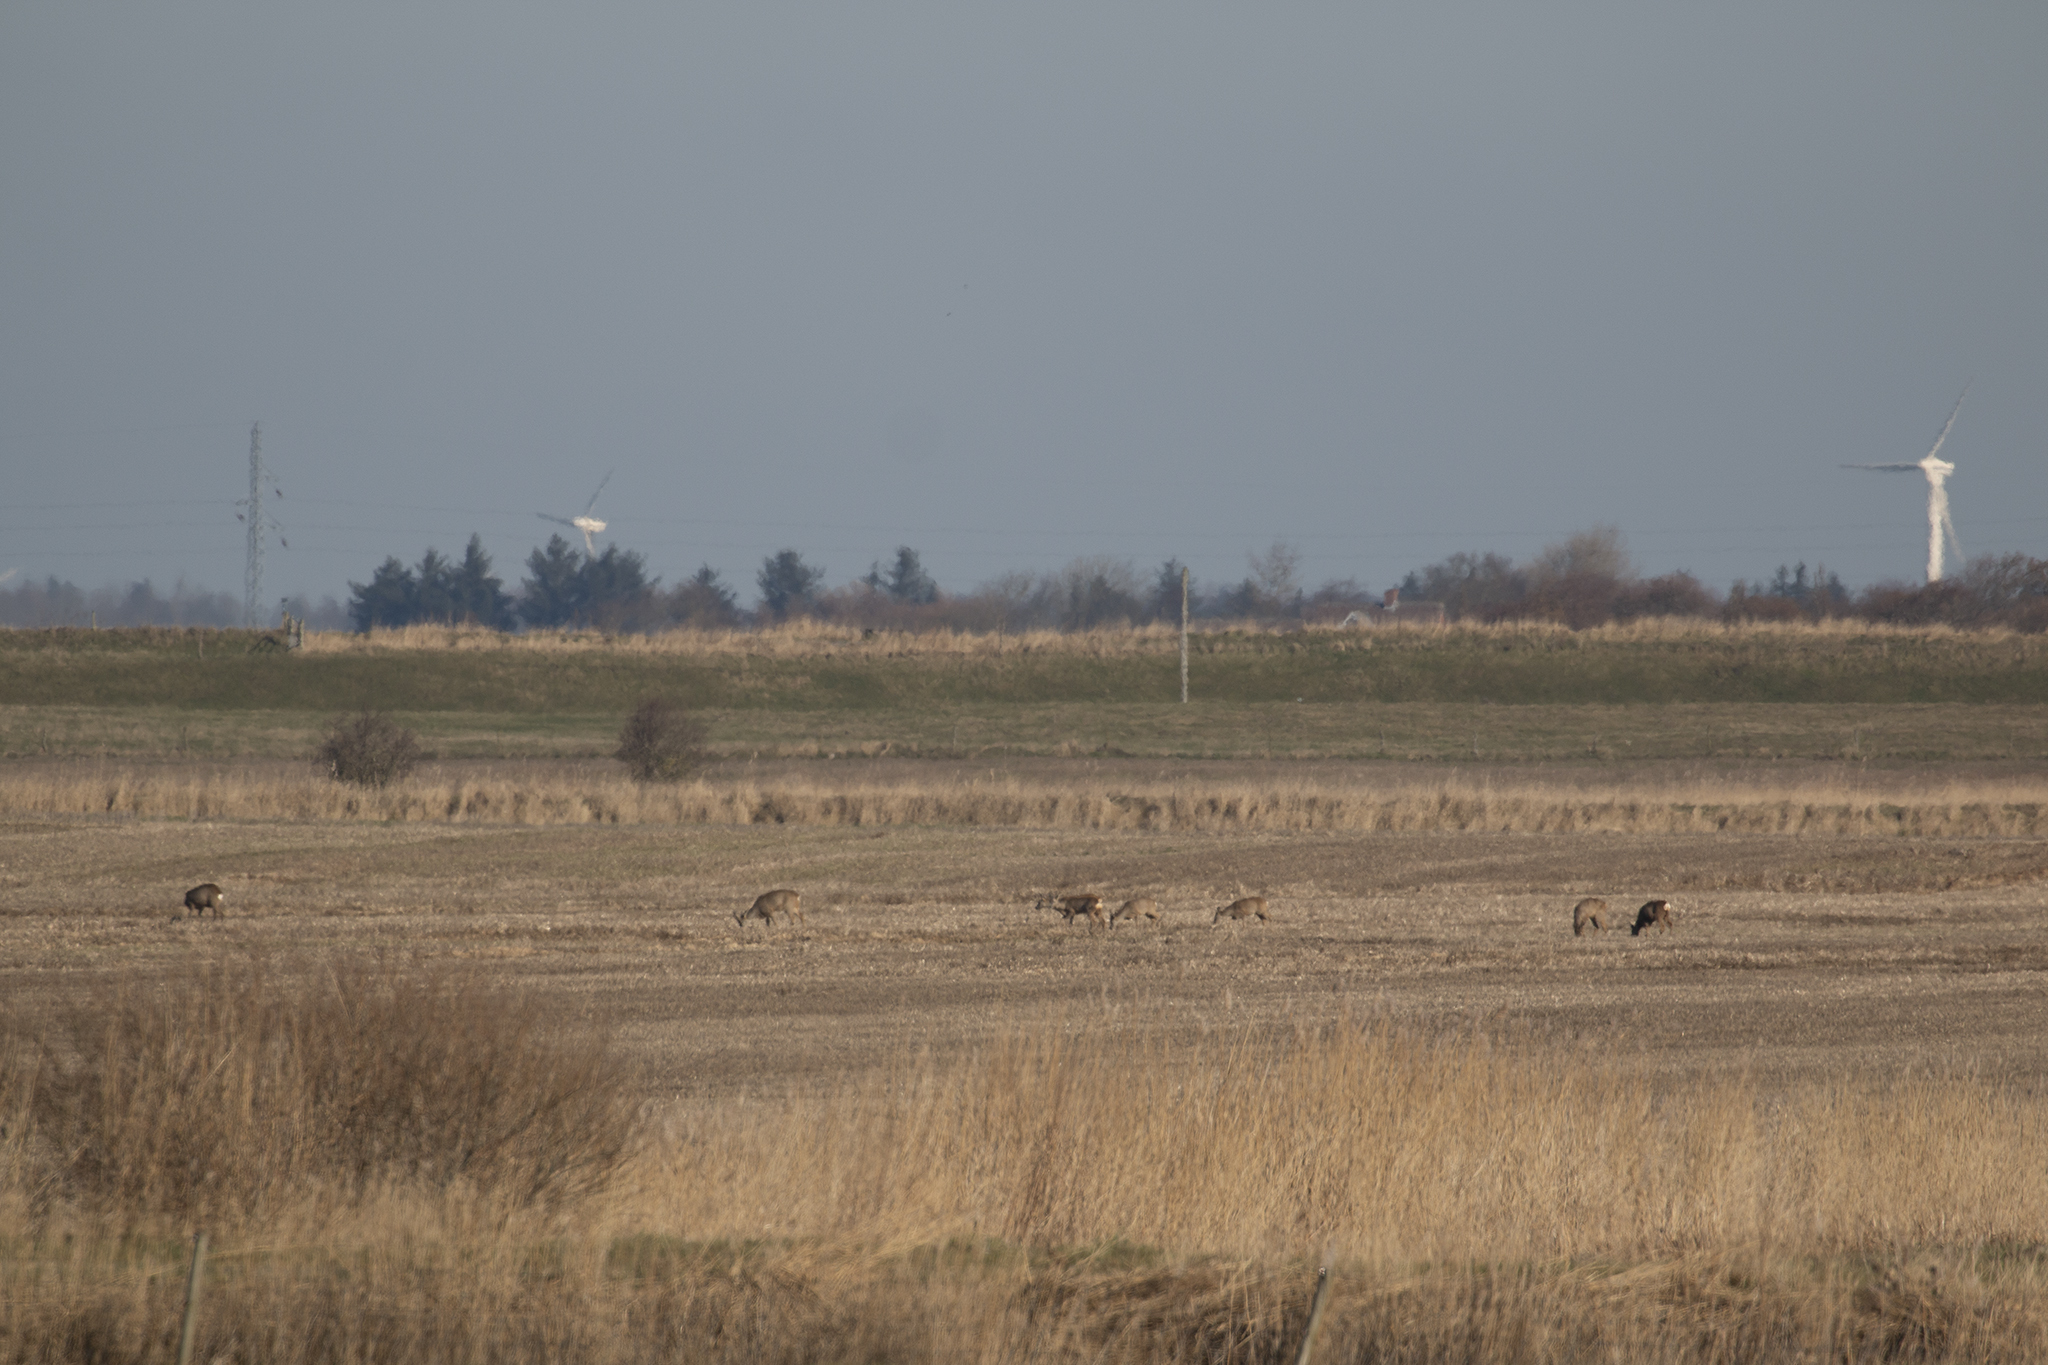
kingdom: Animalia
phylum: Chordata
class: Mammalia
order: Artiodactyla
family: Cervidae
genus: Capreolus
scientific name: Capreolus capreolus
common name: Western roe deer
